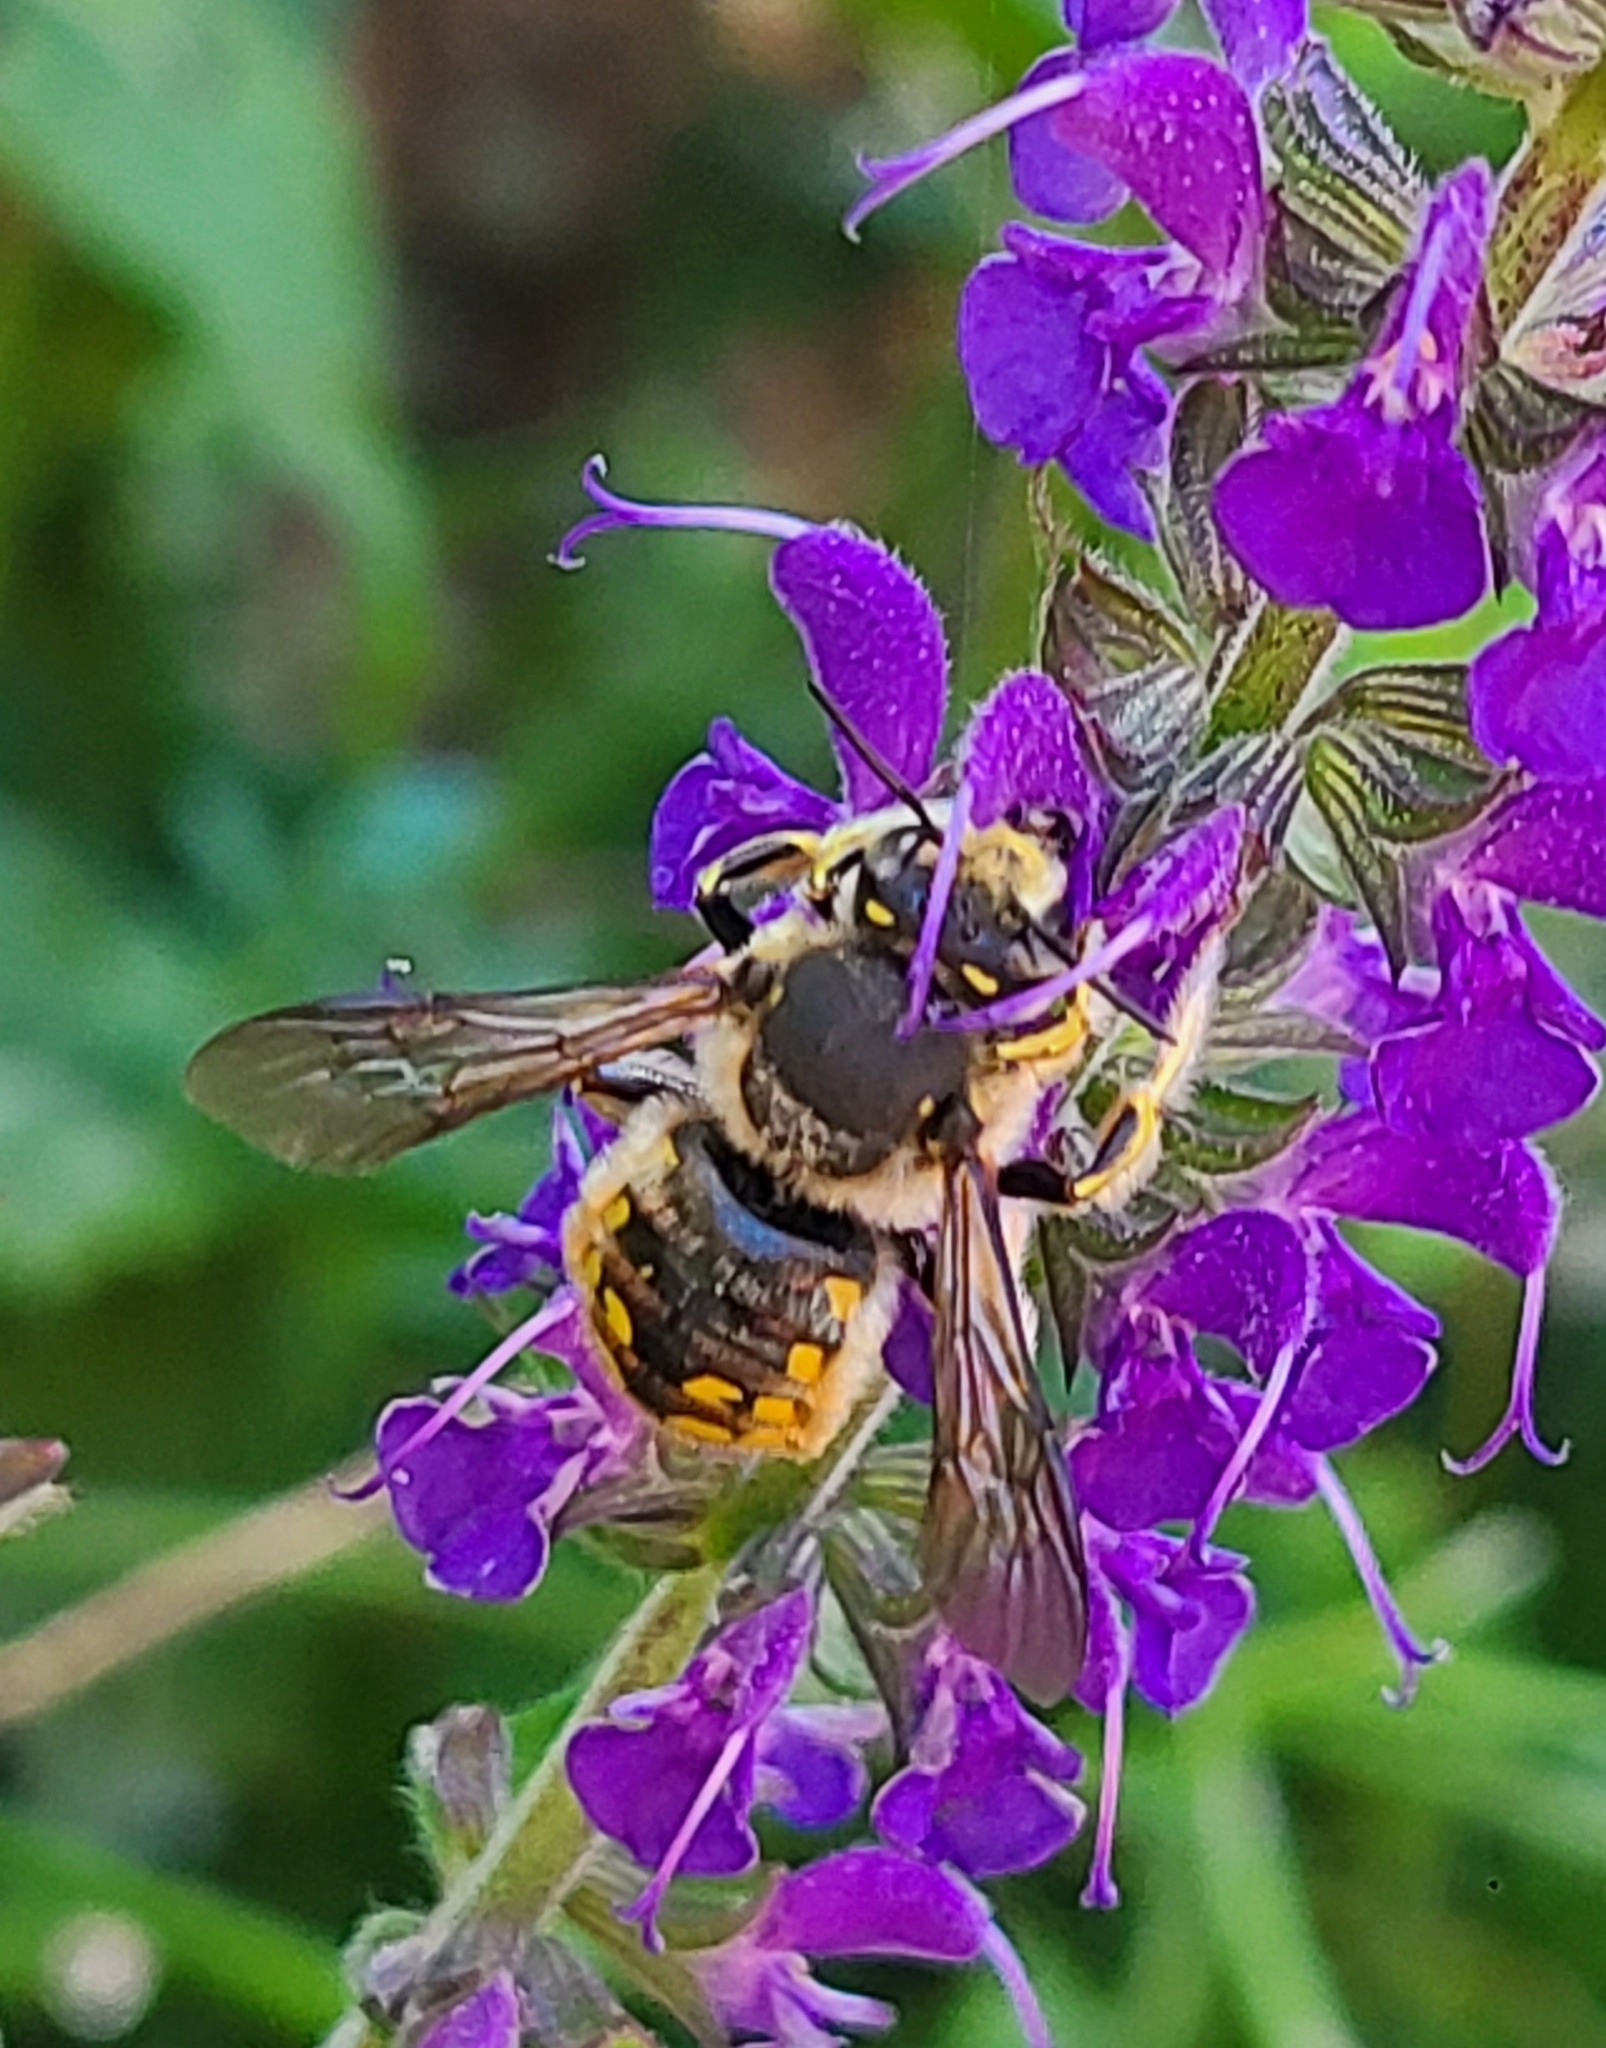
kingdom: Animalia
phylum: Arthropoda
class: Insecta
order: Hymenoptera
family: Megachilidae
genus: Anthidium
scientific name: Anthidium manicatum
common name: Wool carder bee
